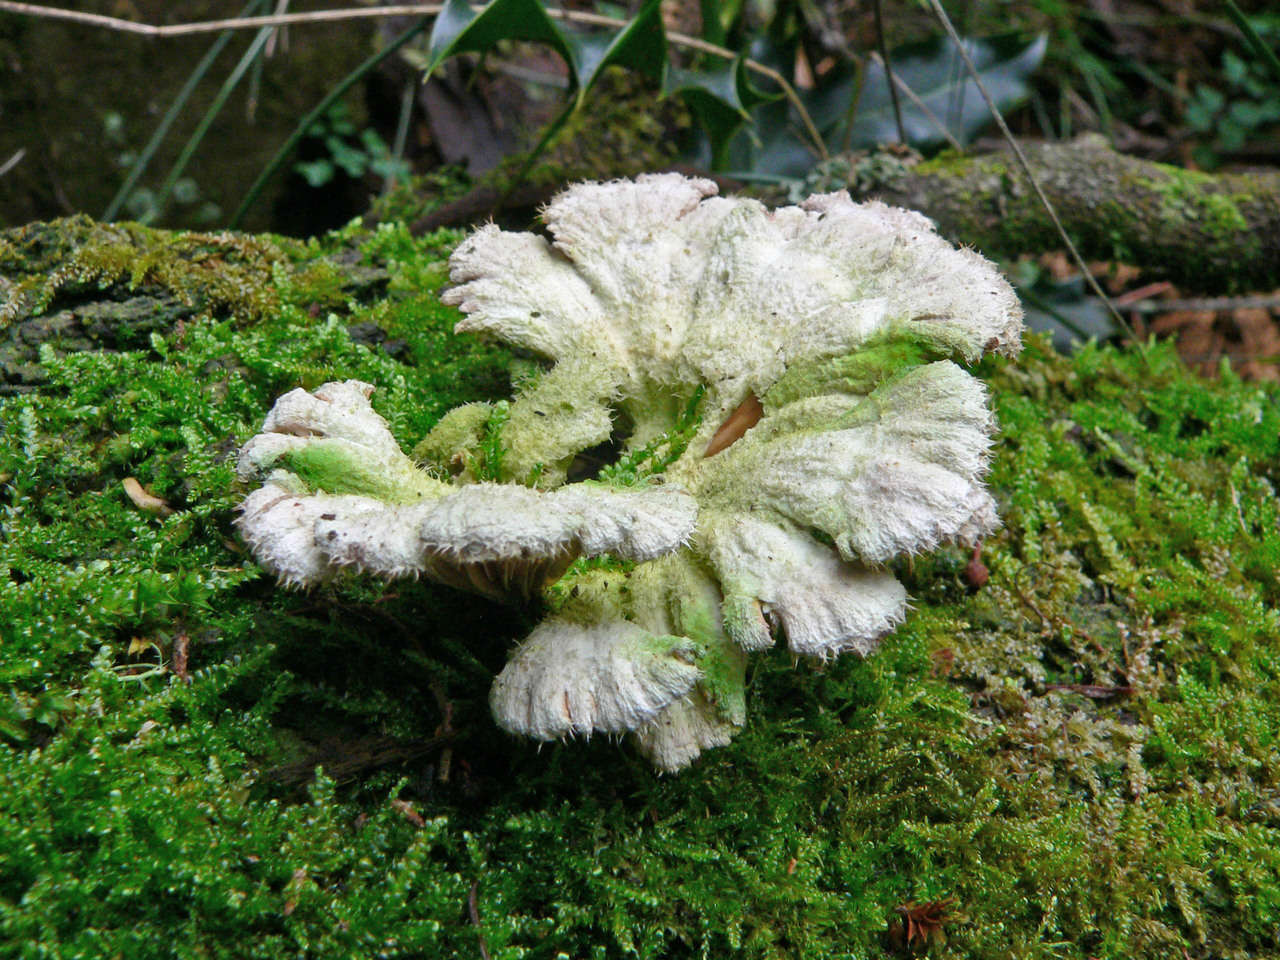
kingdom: Fungi
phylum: Basidiomycota
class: Agaricomycetes
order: Agaricales
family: Schizophyllaceae
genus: Schizophyllum
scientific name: Schizophyllum commune
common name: Common porecrust
